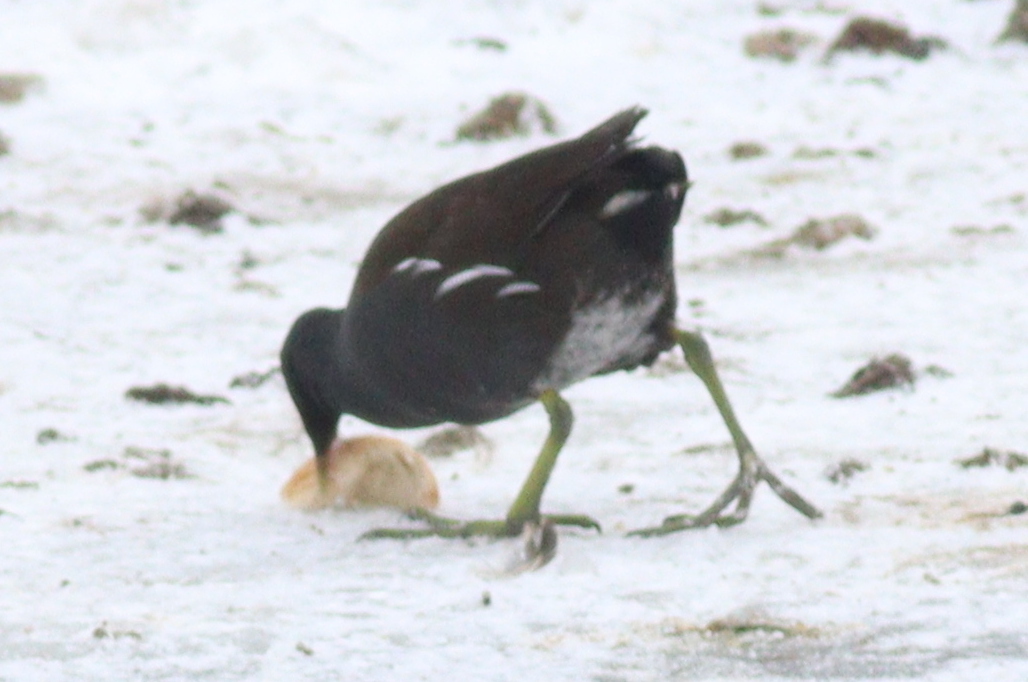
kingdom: Animalia
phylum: Chordata
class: Aves
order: Gruiformes
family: Rallidae
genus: Gallinula
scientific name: Gallinula chloropus
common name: Common moorhen
